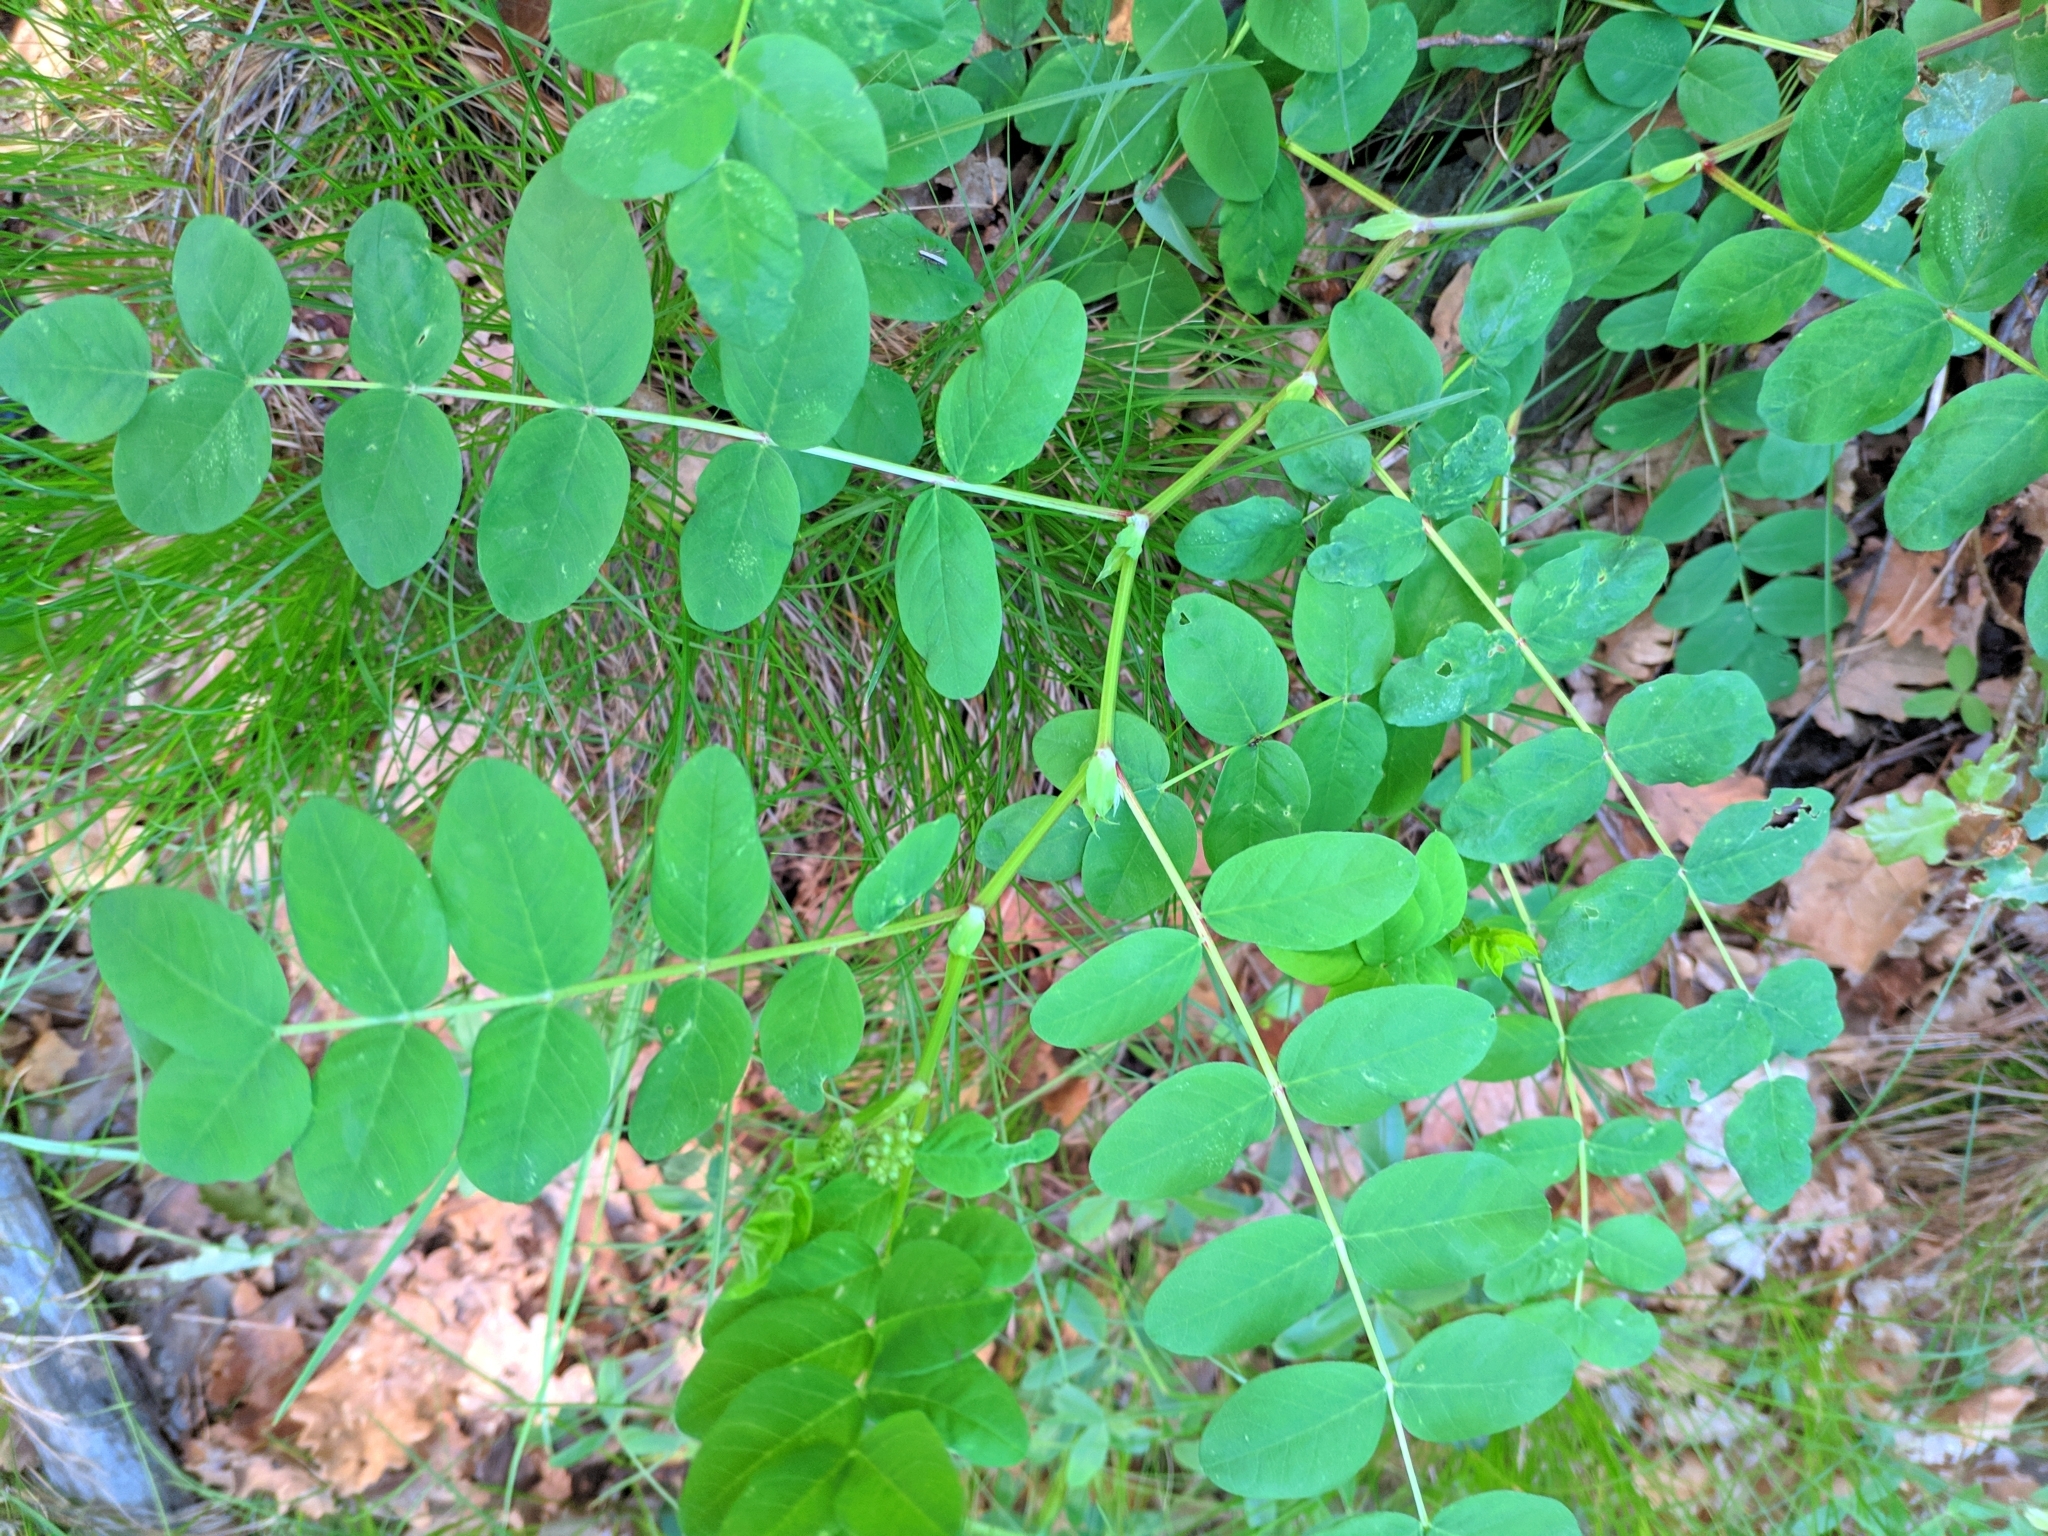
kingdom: Plantae
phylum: Tracheophyta
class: Magnoliopsida
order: Fabales
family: Fabaceae
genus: Astragalus
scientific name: Astragalus glycyphyllos
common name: Wild liquorice
